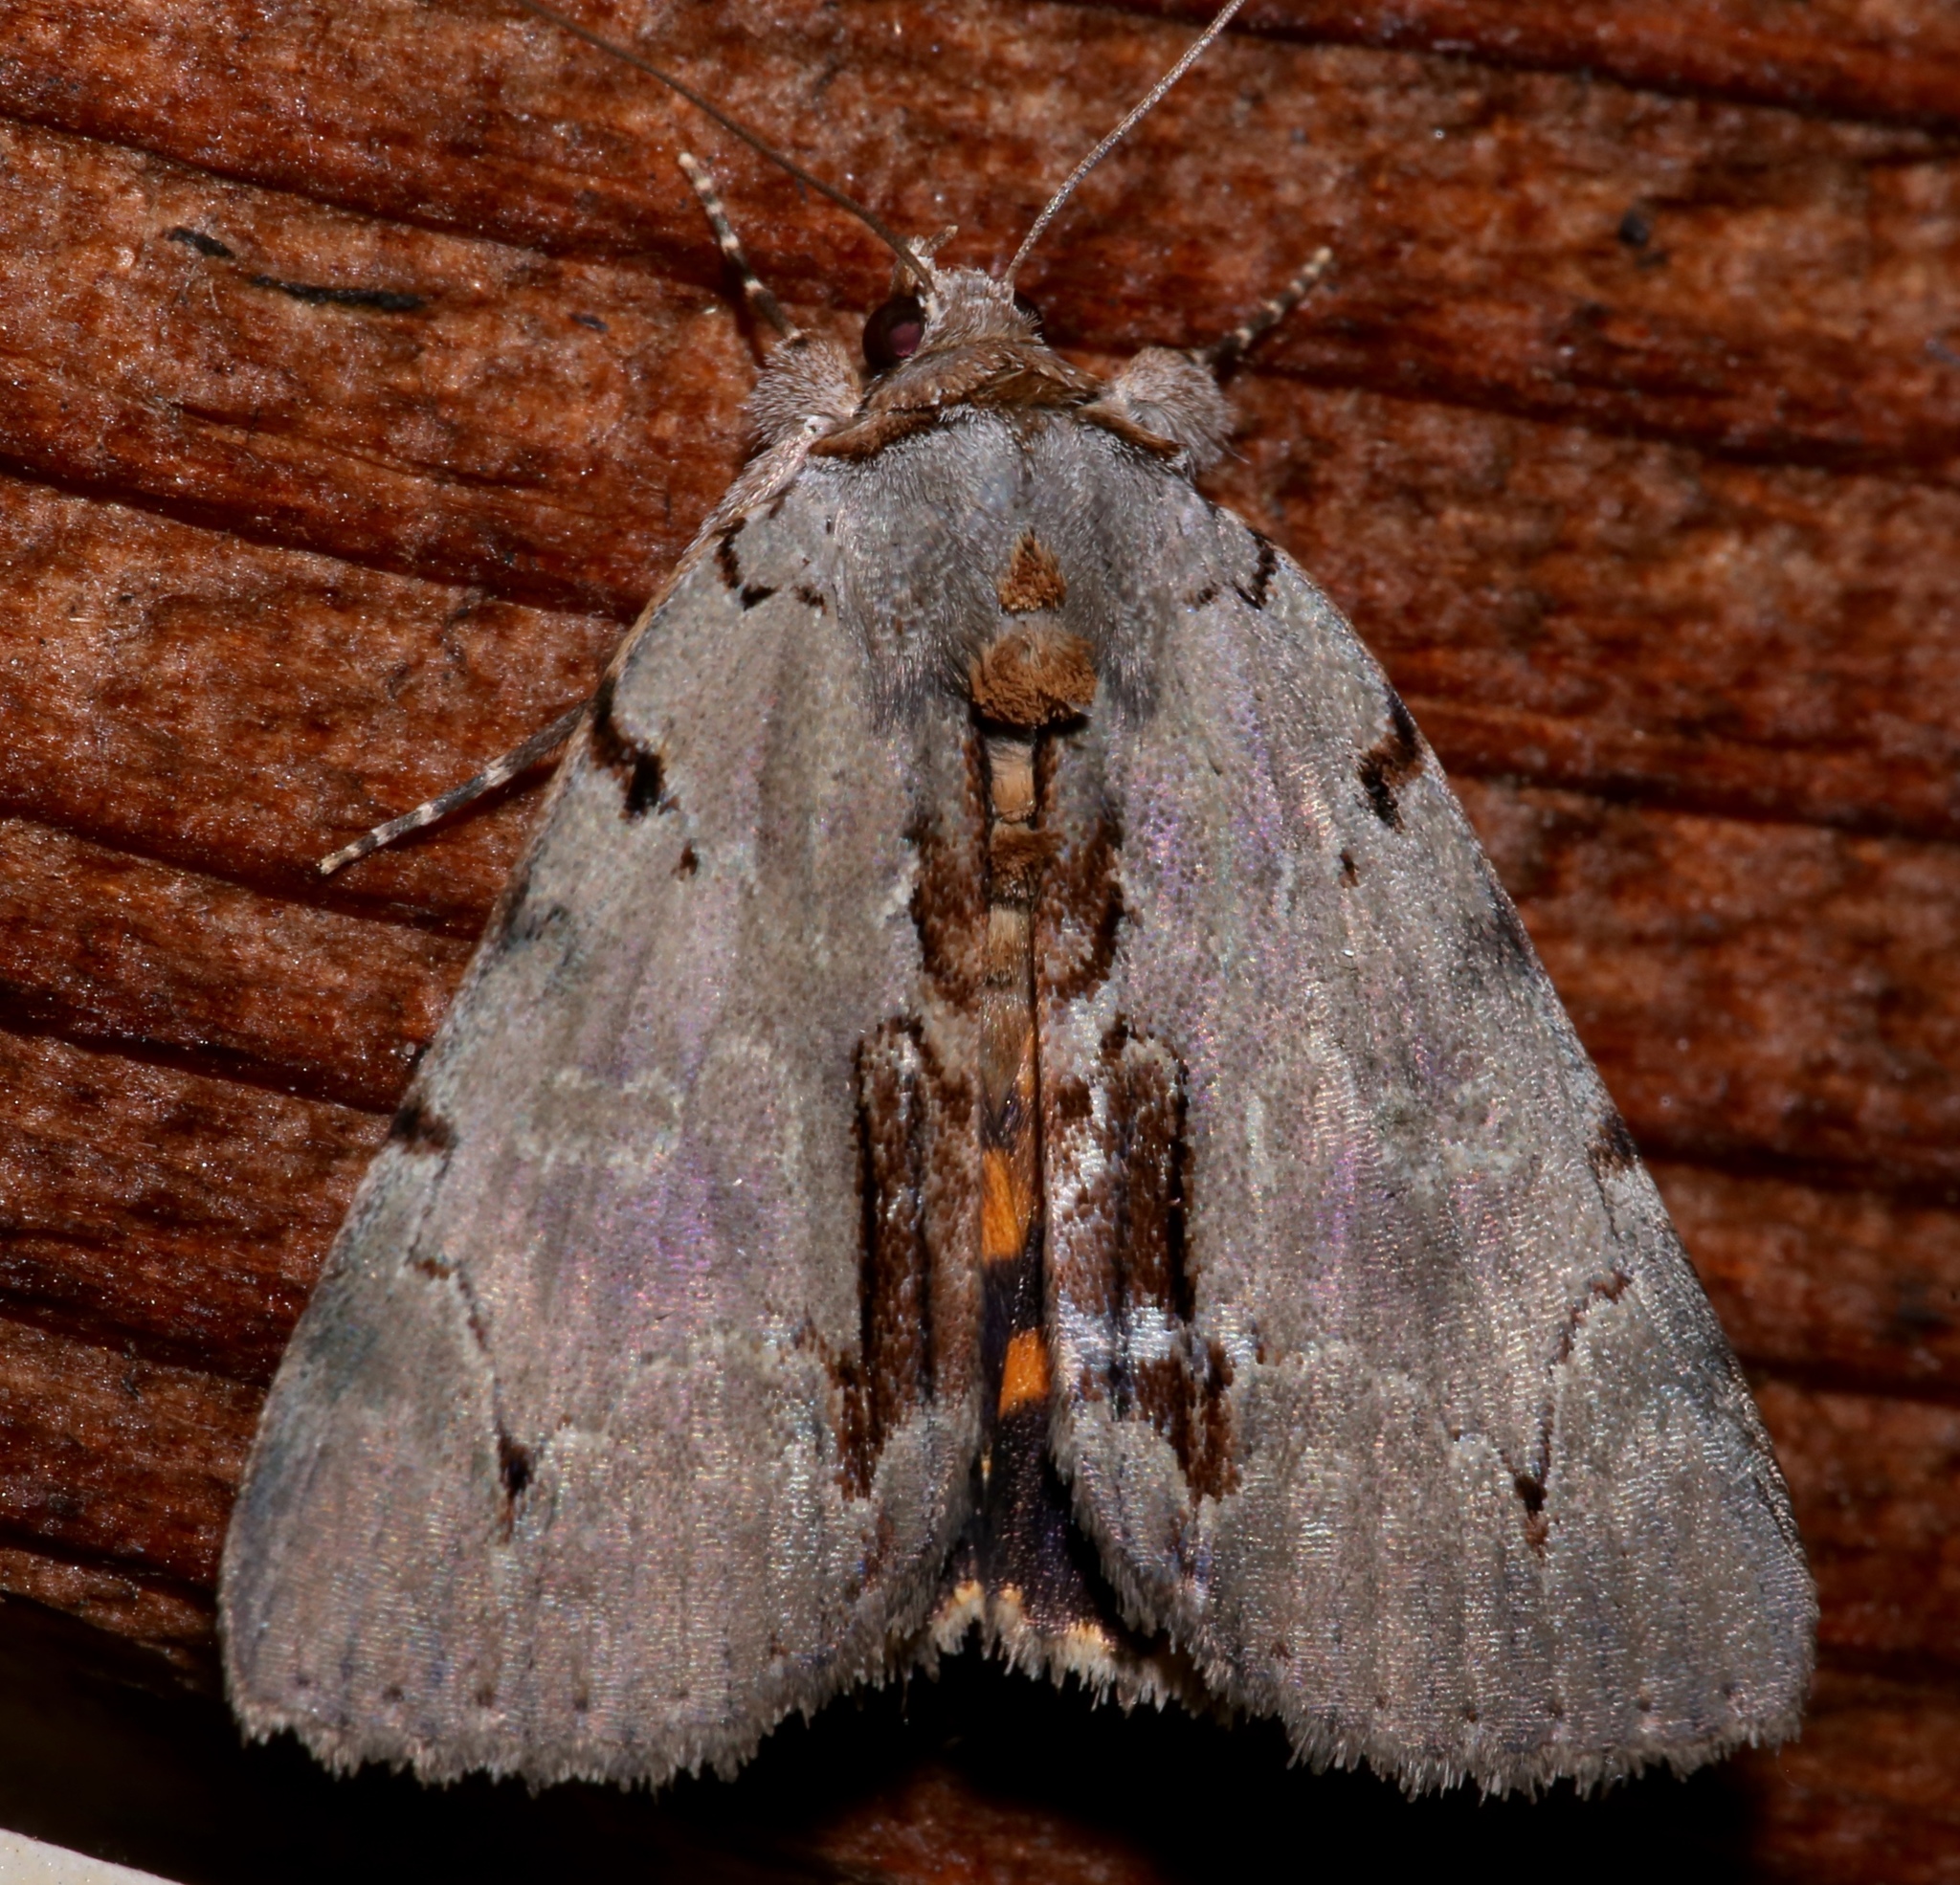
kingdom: Animalia
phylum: Arthropoda
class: Insecta
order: Lepidoptera
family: Erebidae
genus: Catocala
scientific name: Catocala grynea
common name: Woody underwing
